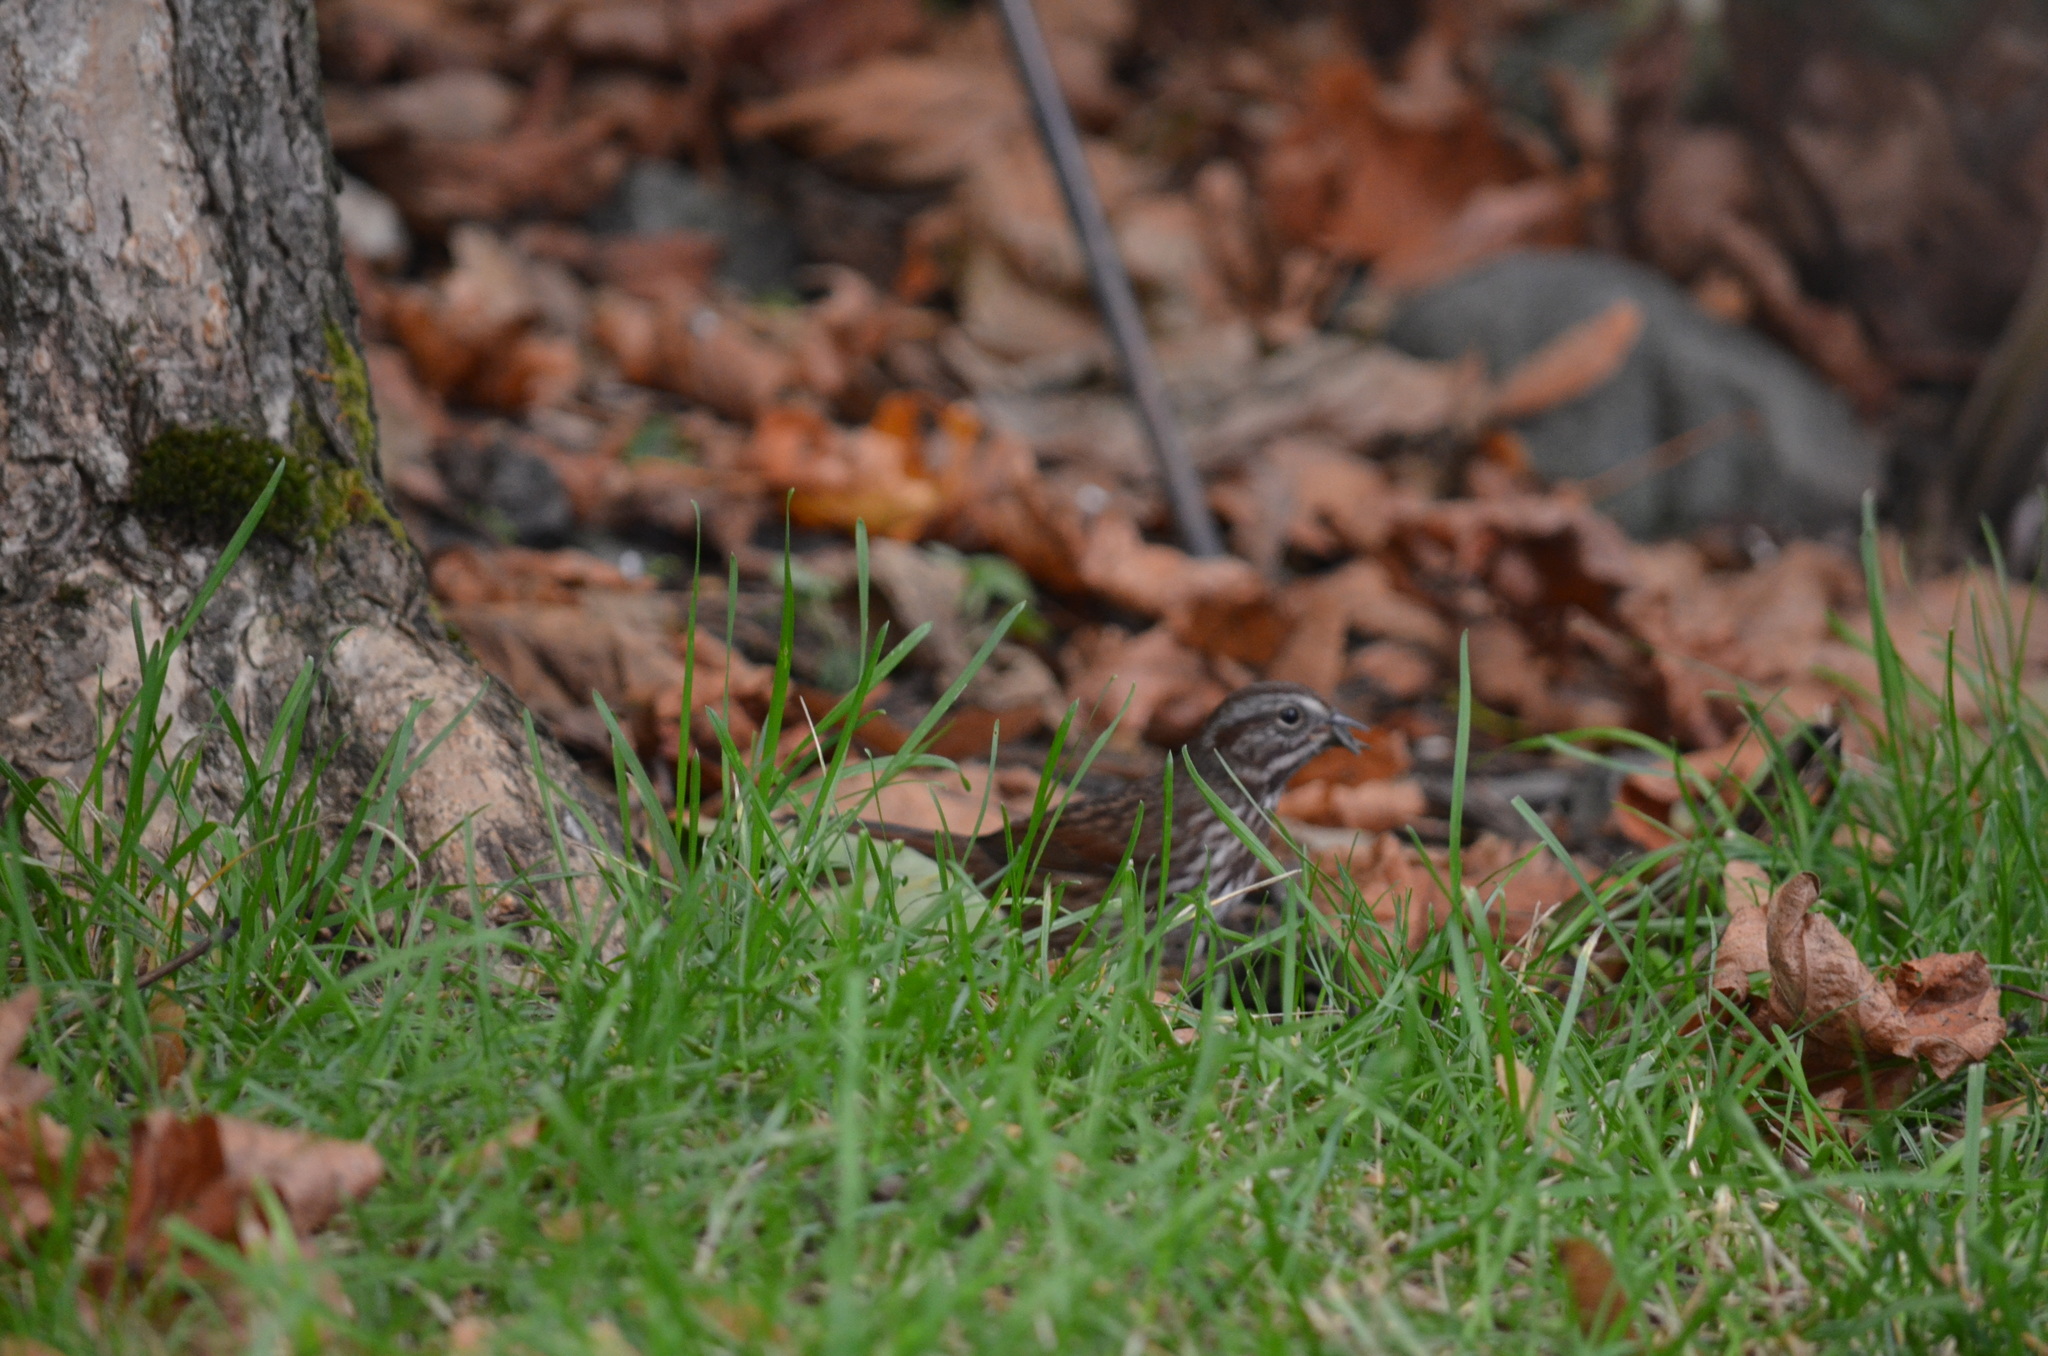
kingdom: Animalia
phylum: Chordata
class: Aves
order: Passeriformes
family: Passerellidae
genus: Melospiza
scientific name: Melospiza melodia
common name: Song sparrow
